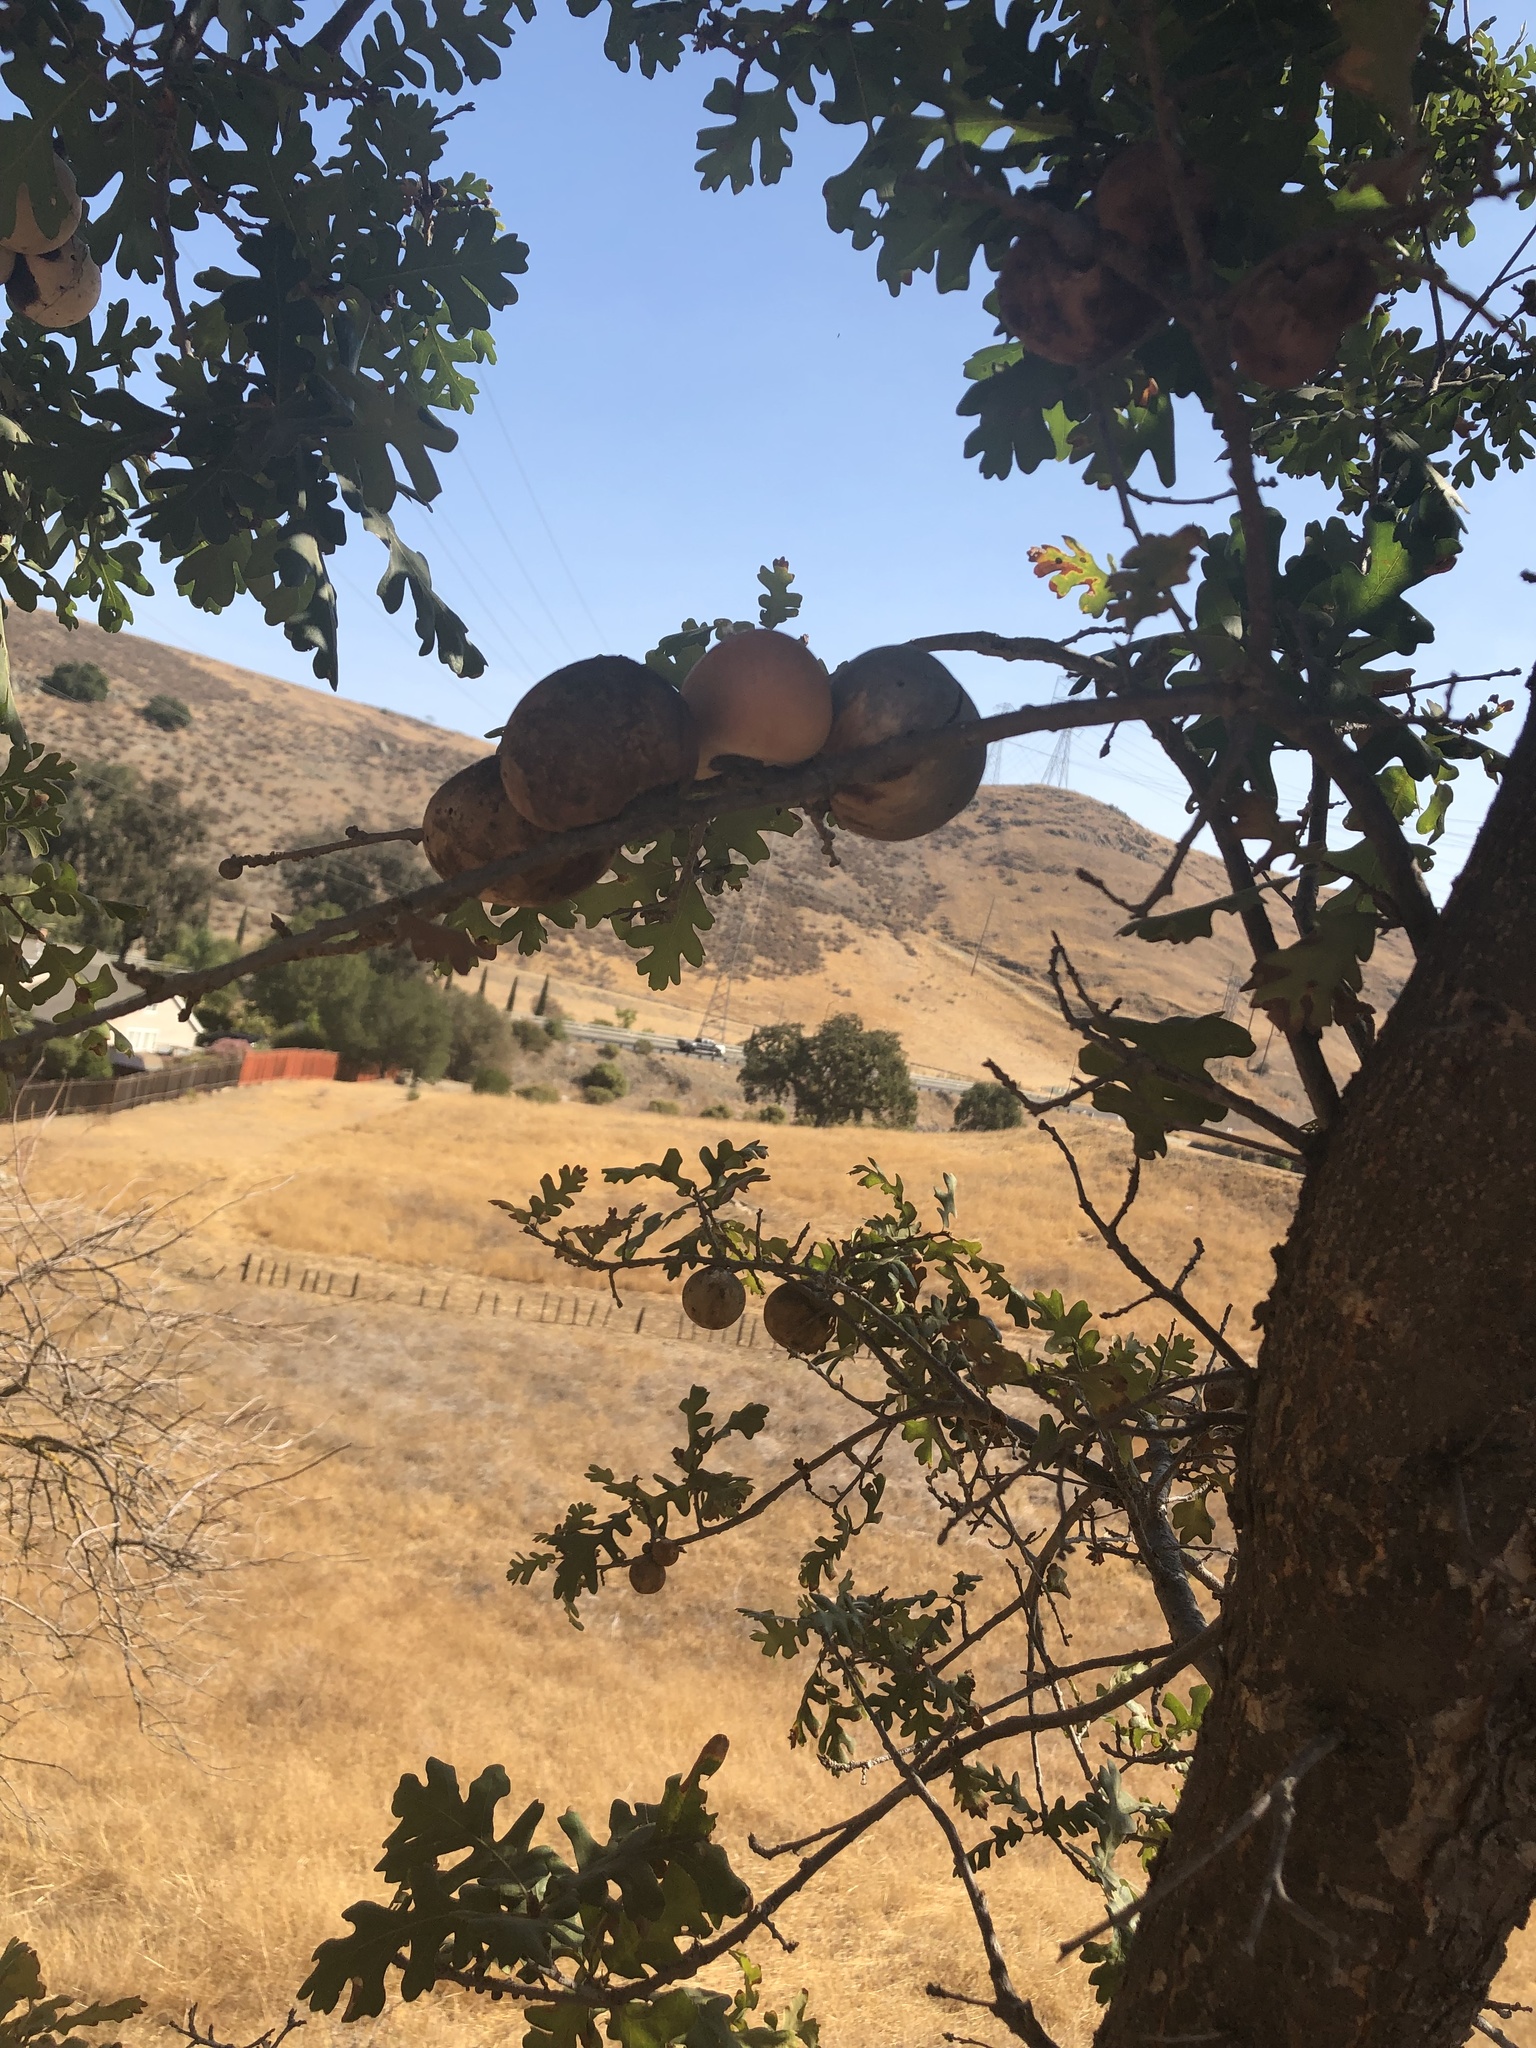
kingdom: Animalia
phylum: Arthropoda
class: Insecta
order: Hymenoptera
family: Cynipidae
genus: Andricus
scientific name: Andricus quercuscalifornicus
